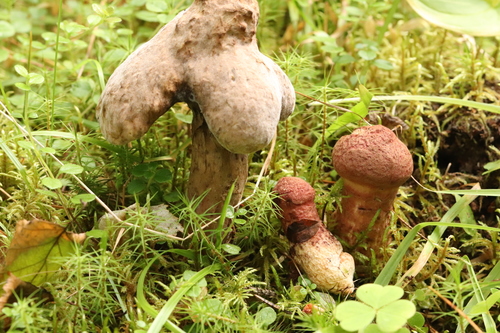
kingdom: Fungi
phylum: Basidiomycota
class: Agaricomycetes
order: Boletales
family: Suillaceae
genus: Suillus
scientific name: Suillus spraguei
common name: Painted suillus
